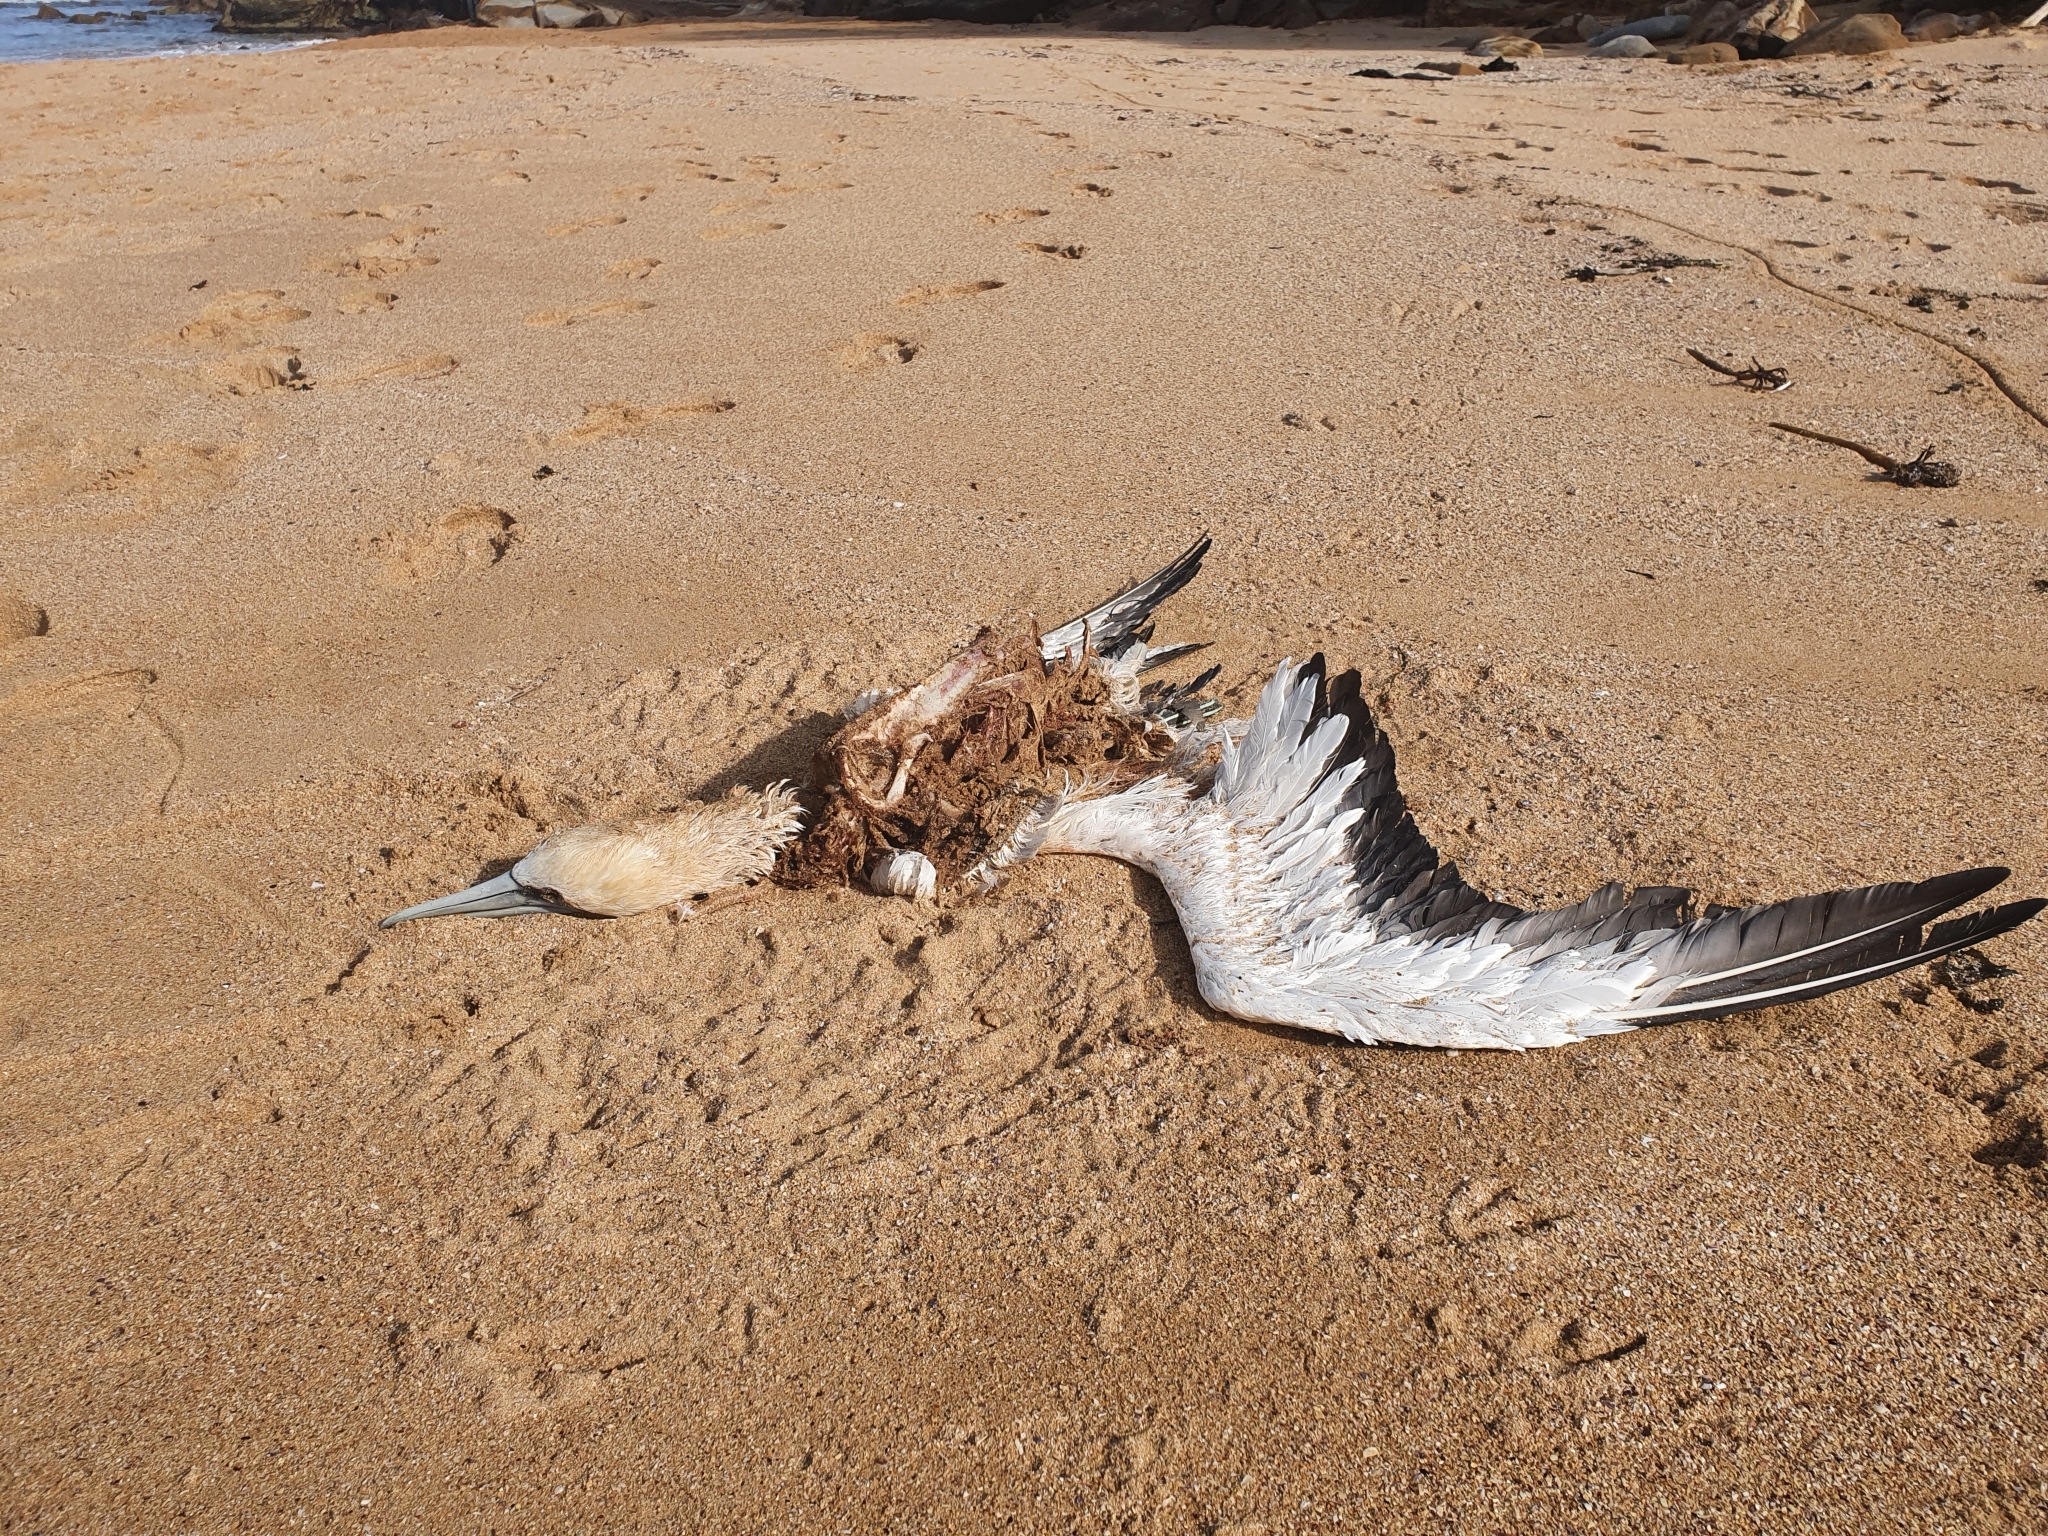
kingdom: Animalia
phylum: Chordata
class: Aves
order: Suliformes
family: Sulidae
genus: Morus
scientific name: Morus serrator
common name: Australasian gannet
